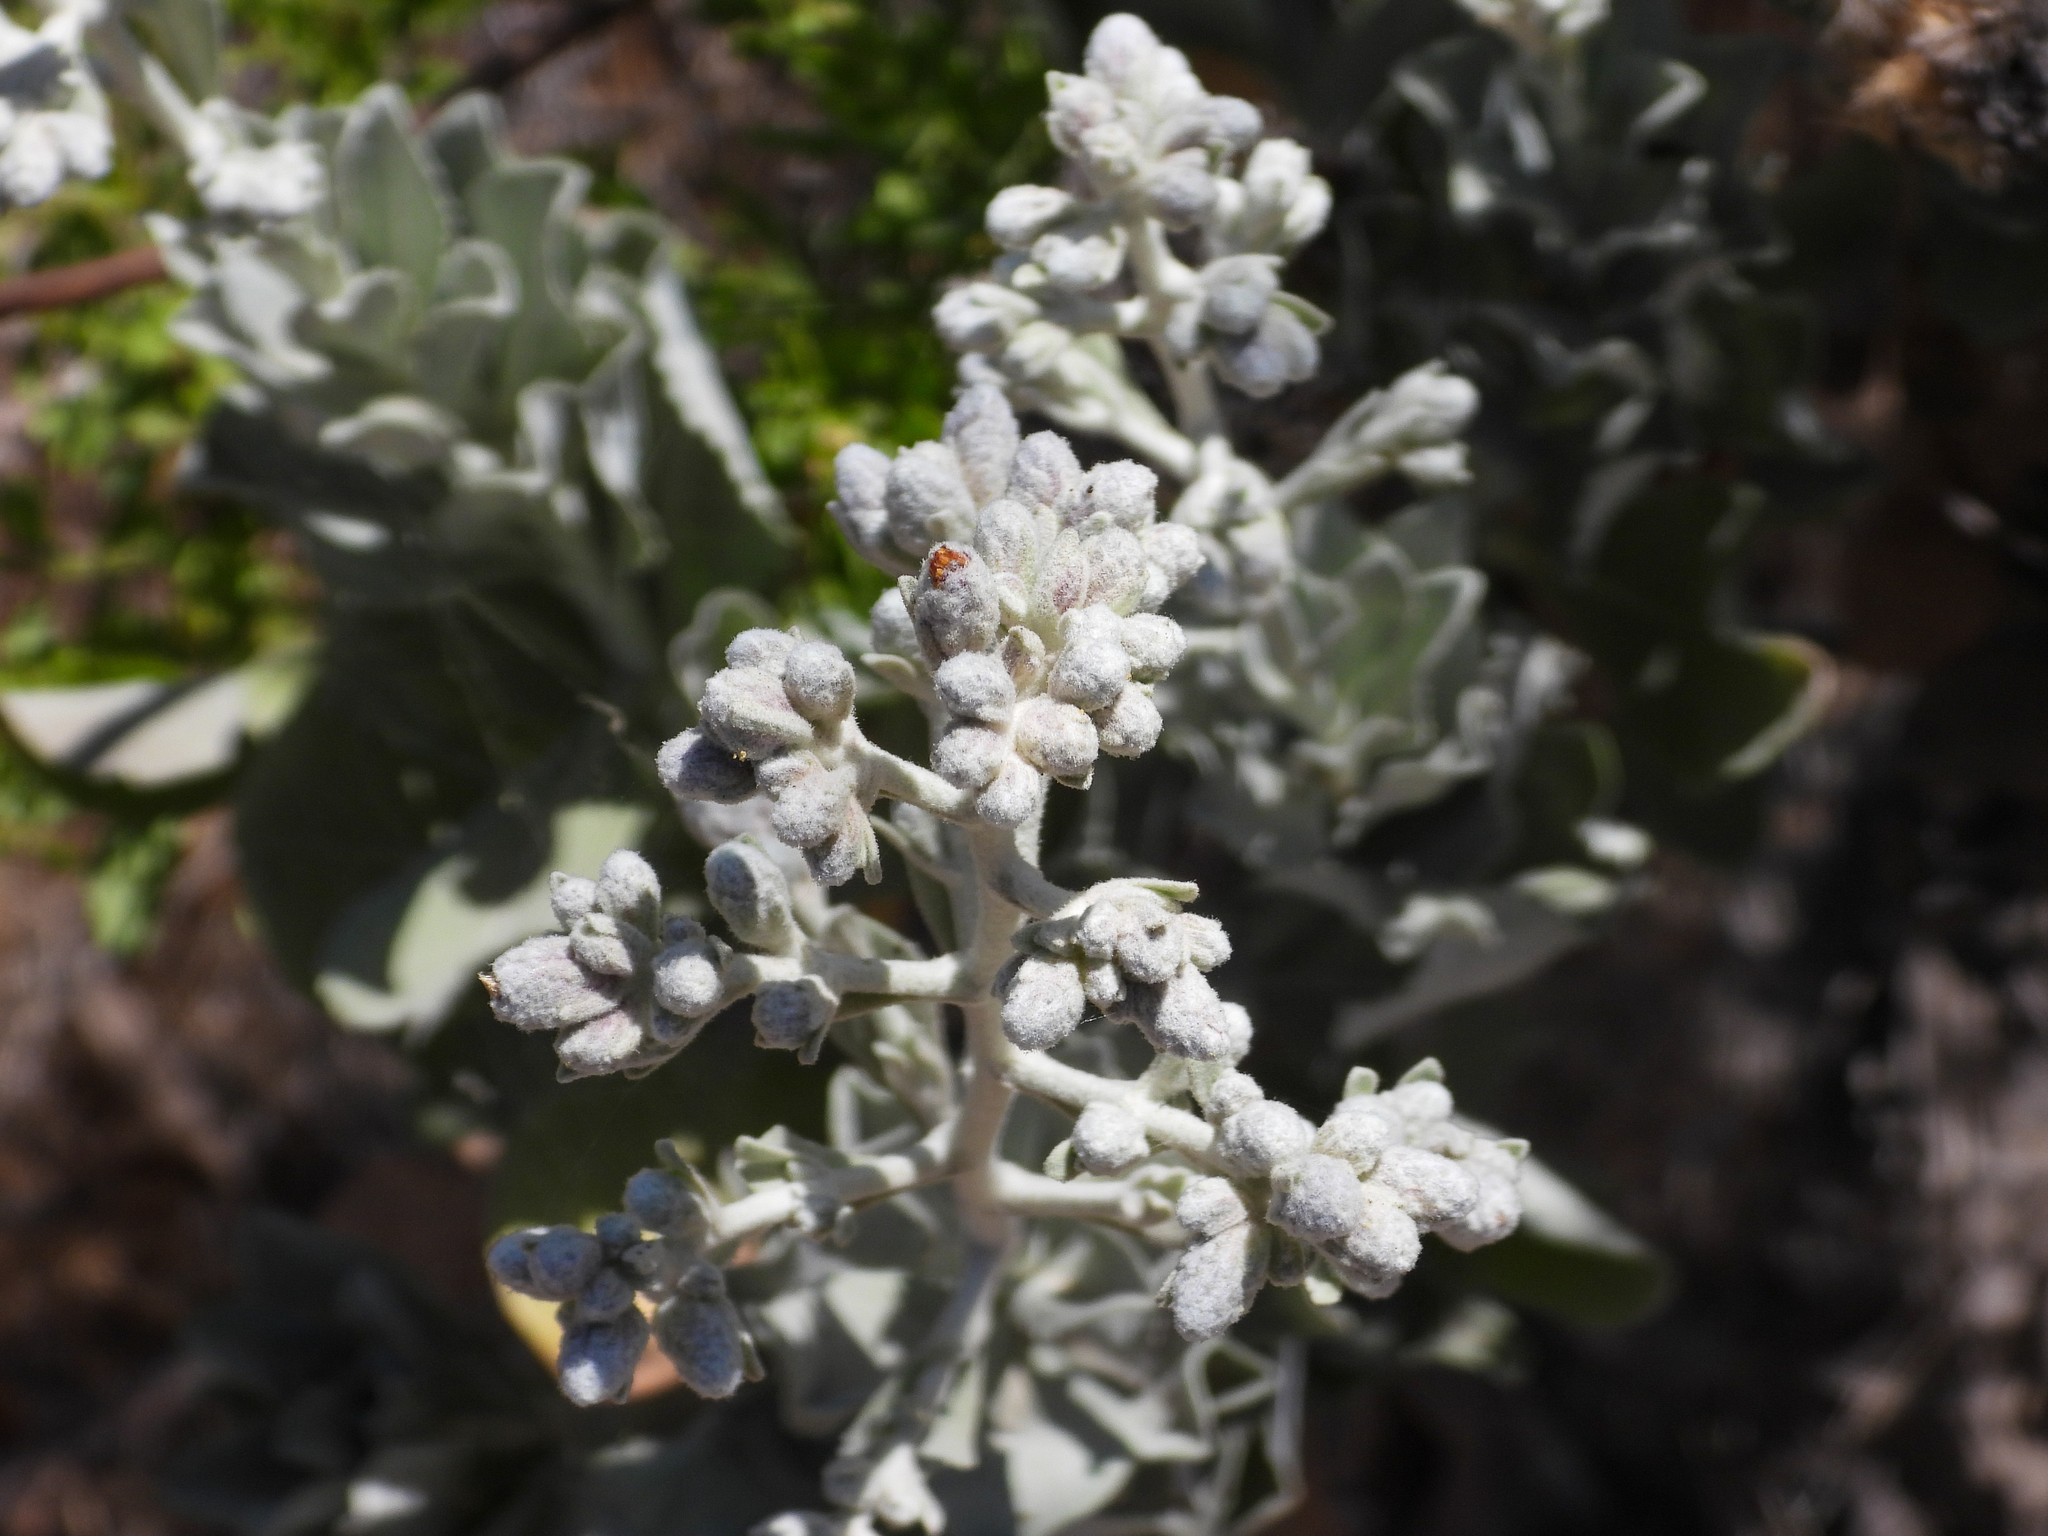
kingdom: Plantae
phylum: Tracheophyta
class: Magnoliopsida
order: Asterales
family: Asteraceae
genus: Hazardia
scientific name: Hazardia detonsa
